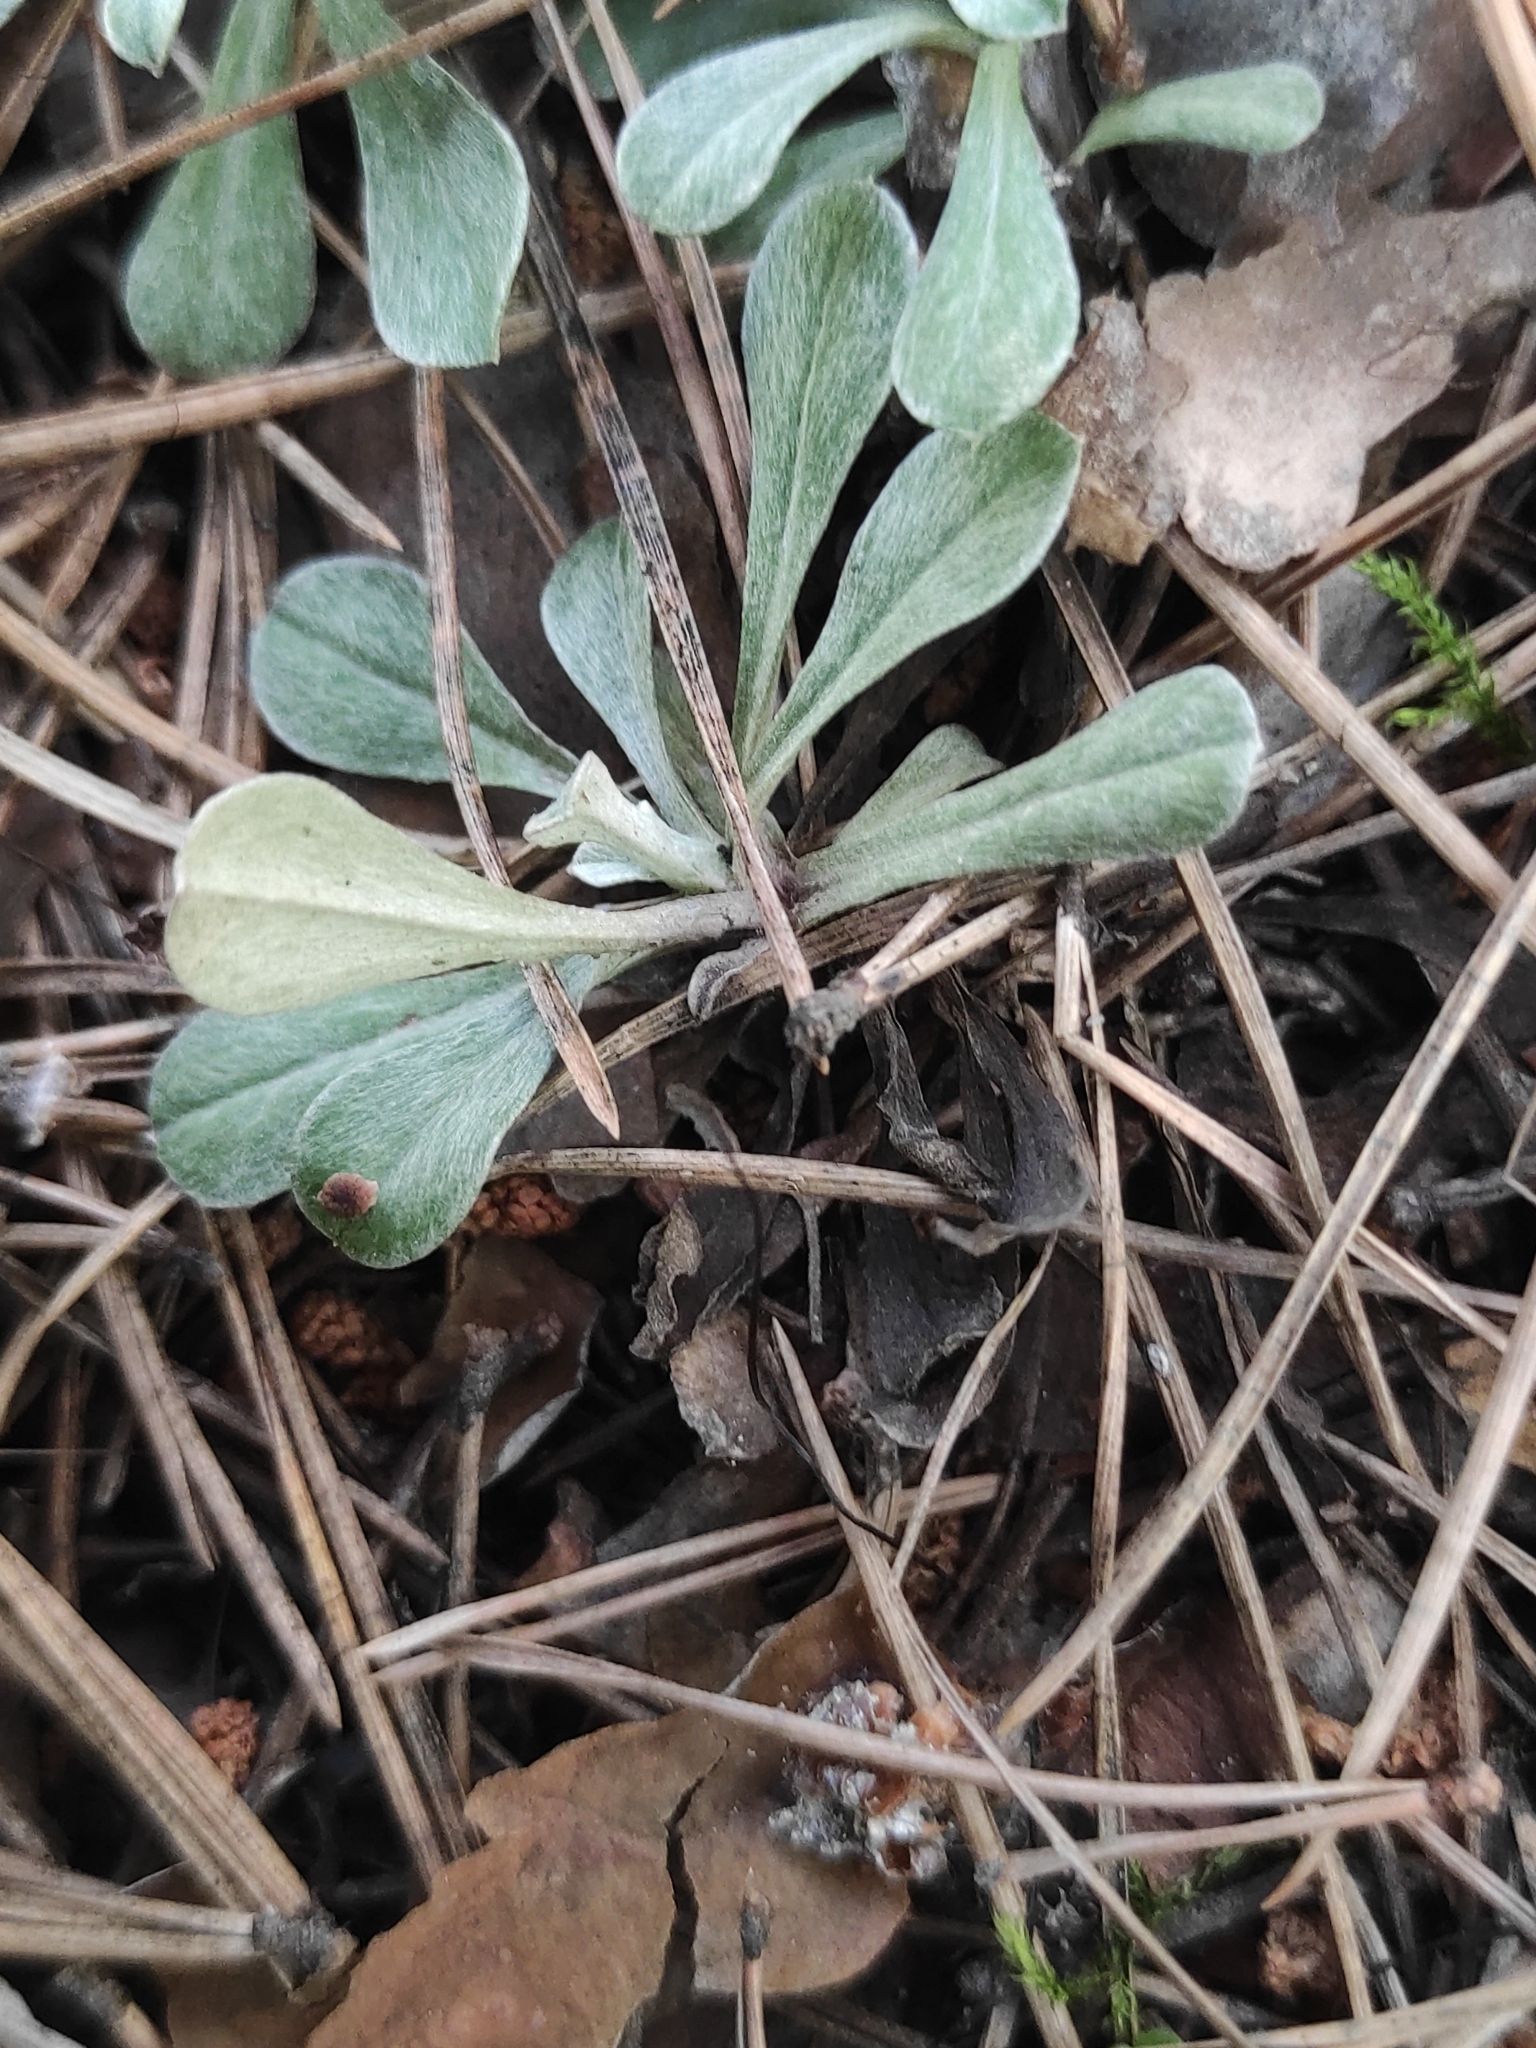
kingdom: Plantae
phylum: Tracheophyta
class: Magnoliopsida
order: Asterales
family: Asteraceae
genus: Antennaria
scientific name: Antennaria dioica
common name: Mountain everlasting
